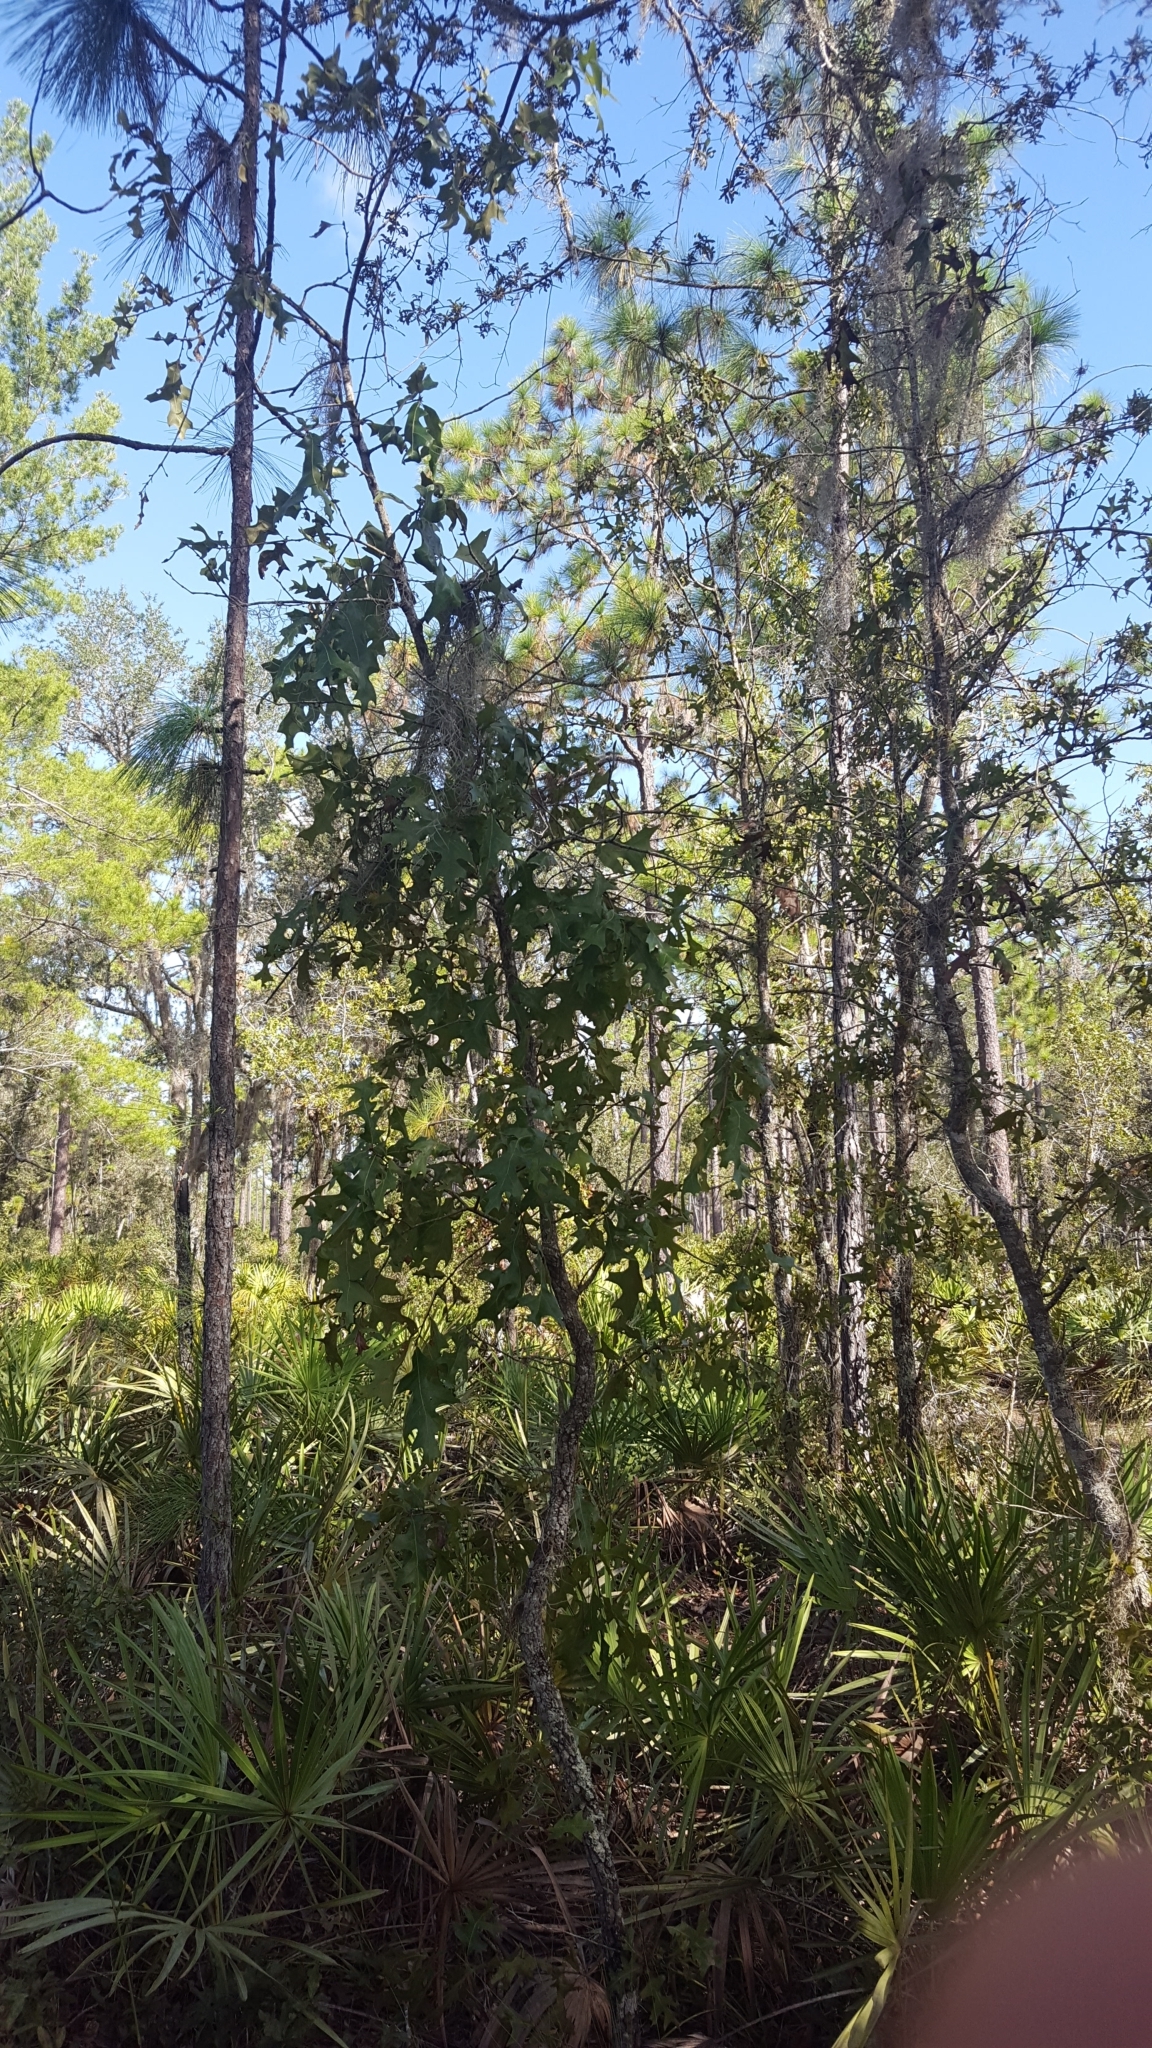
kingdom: Plantae
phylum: Tracheophyta
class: Magnoliopsida
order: Fagales
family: Fagaceae
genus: Quercus
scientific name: Quercus laevis
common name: Turkey oak
